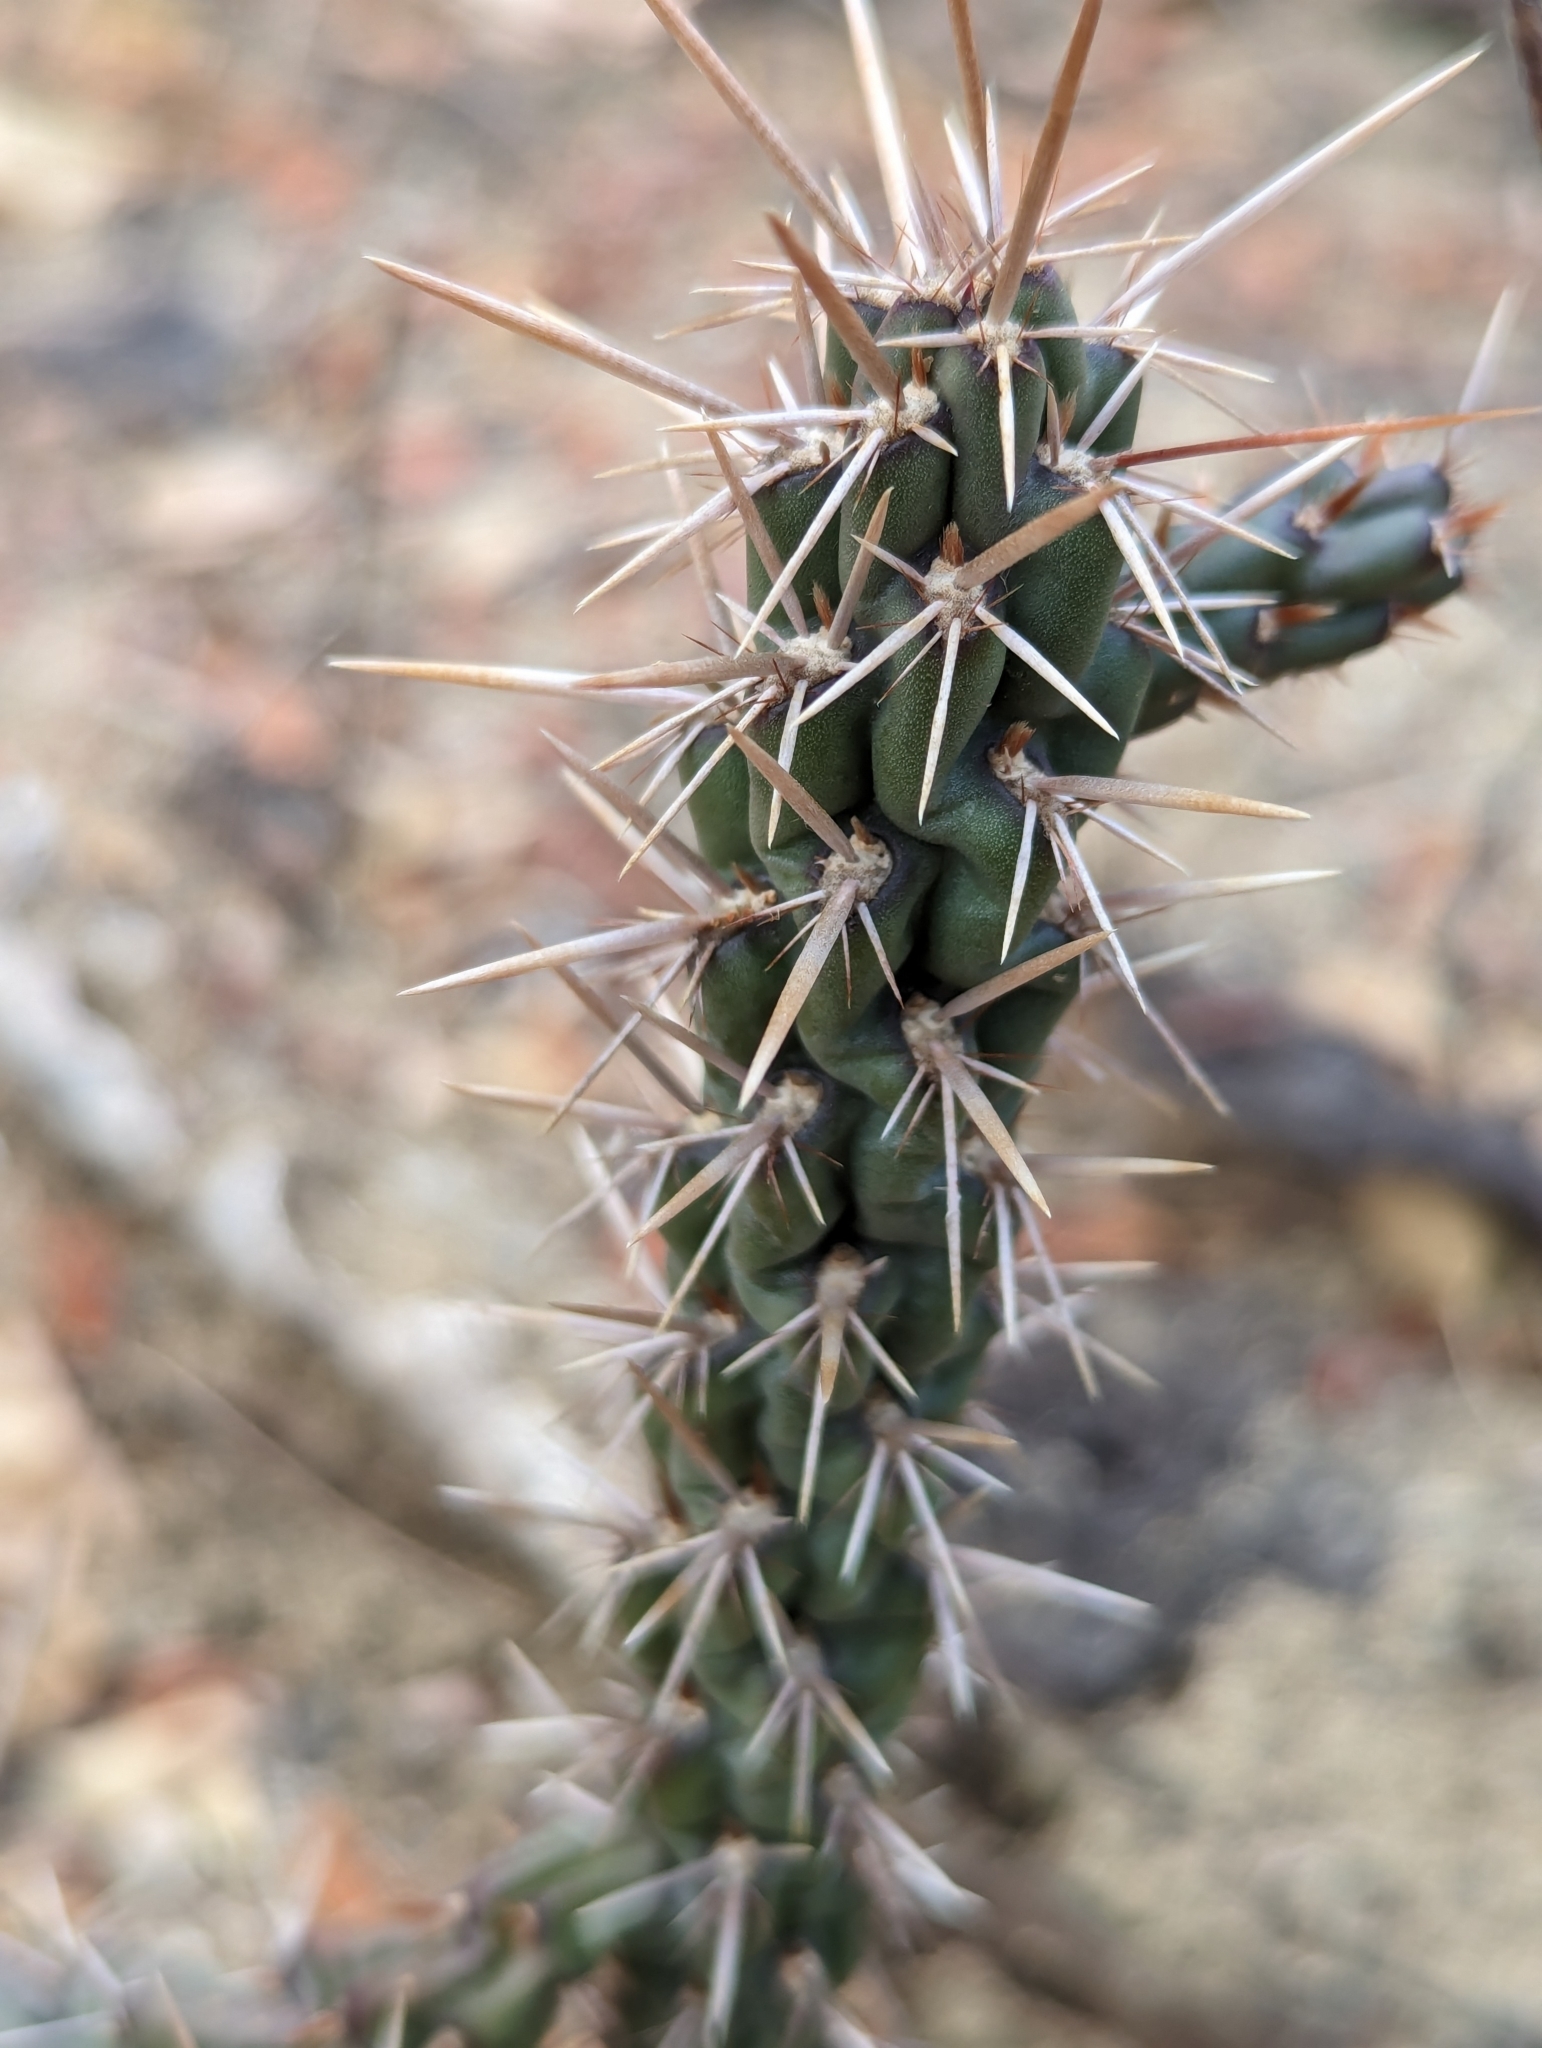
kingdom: Plantae
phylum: Tracheophyta
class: Magnoliopsida
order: Caryophyllales
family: Cactaceae
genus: Cylindropuntia
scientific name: Cylindropuntia cholla
